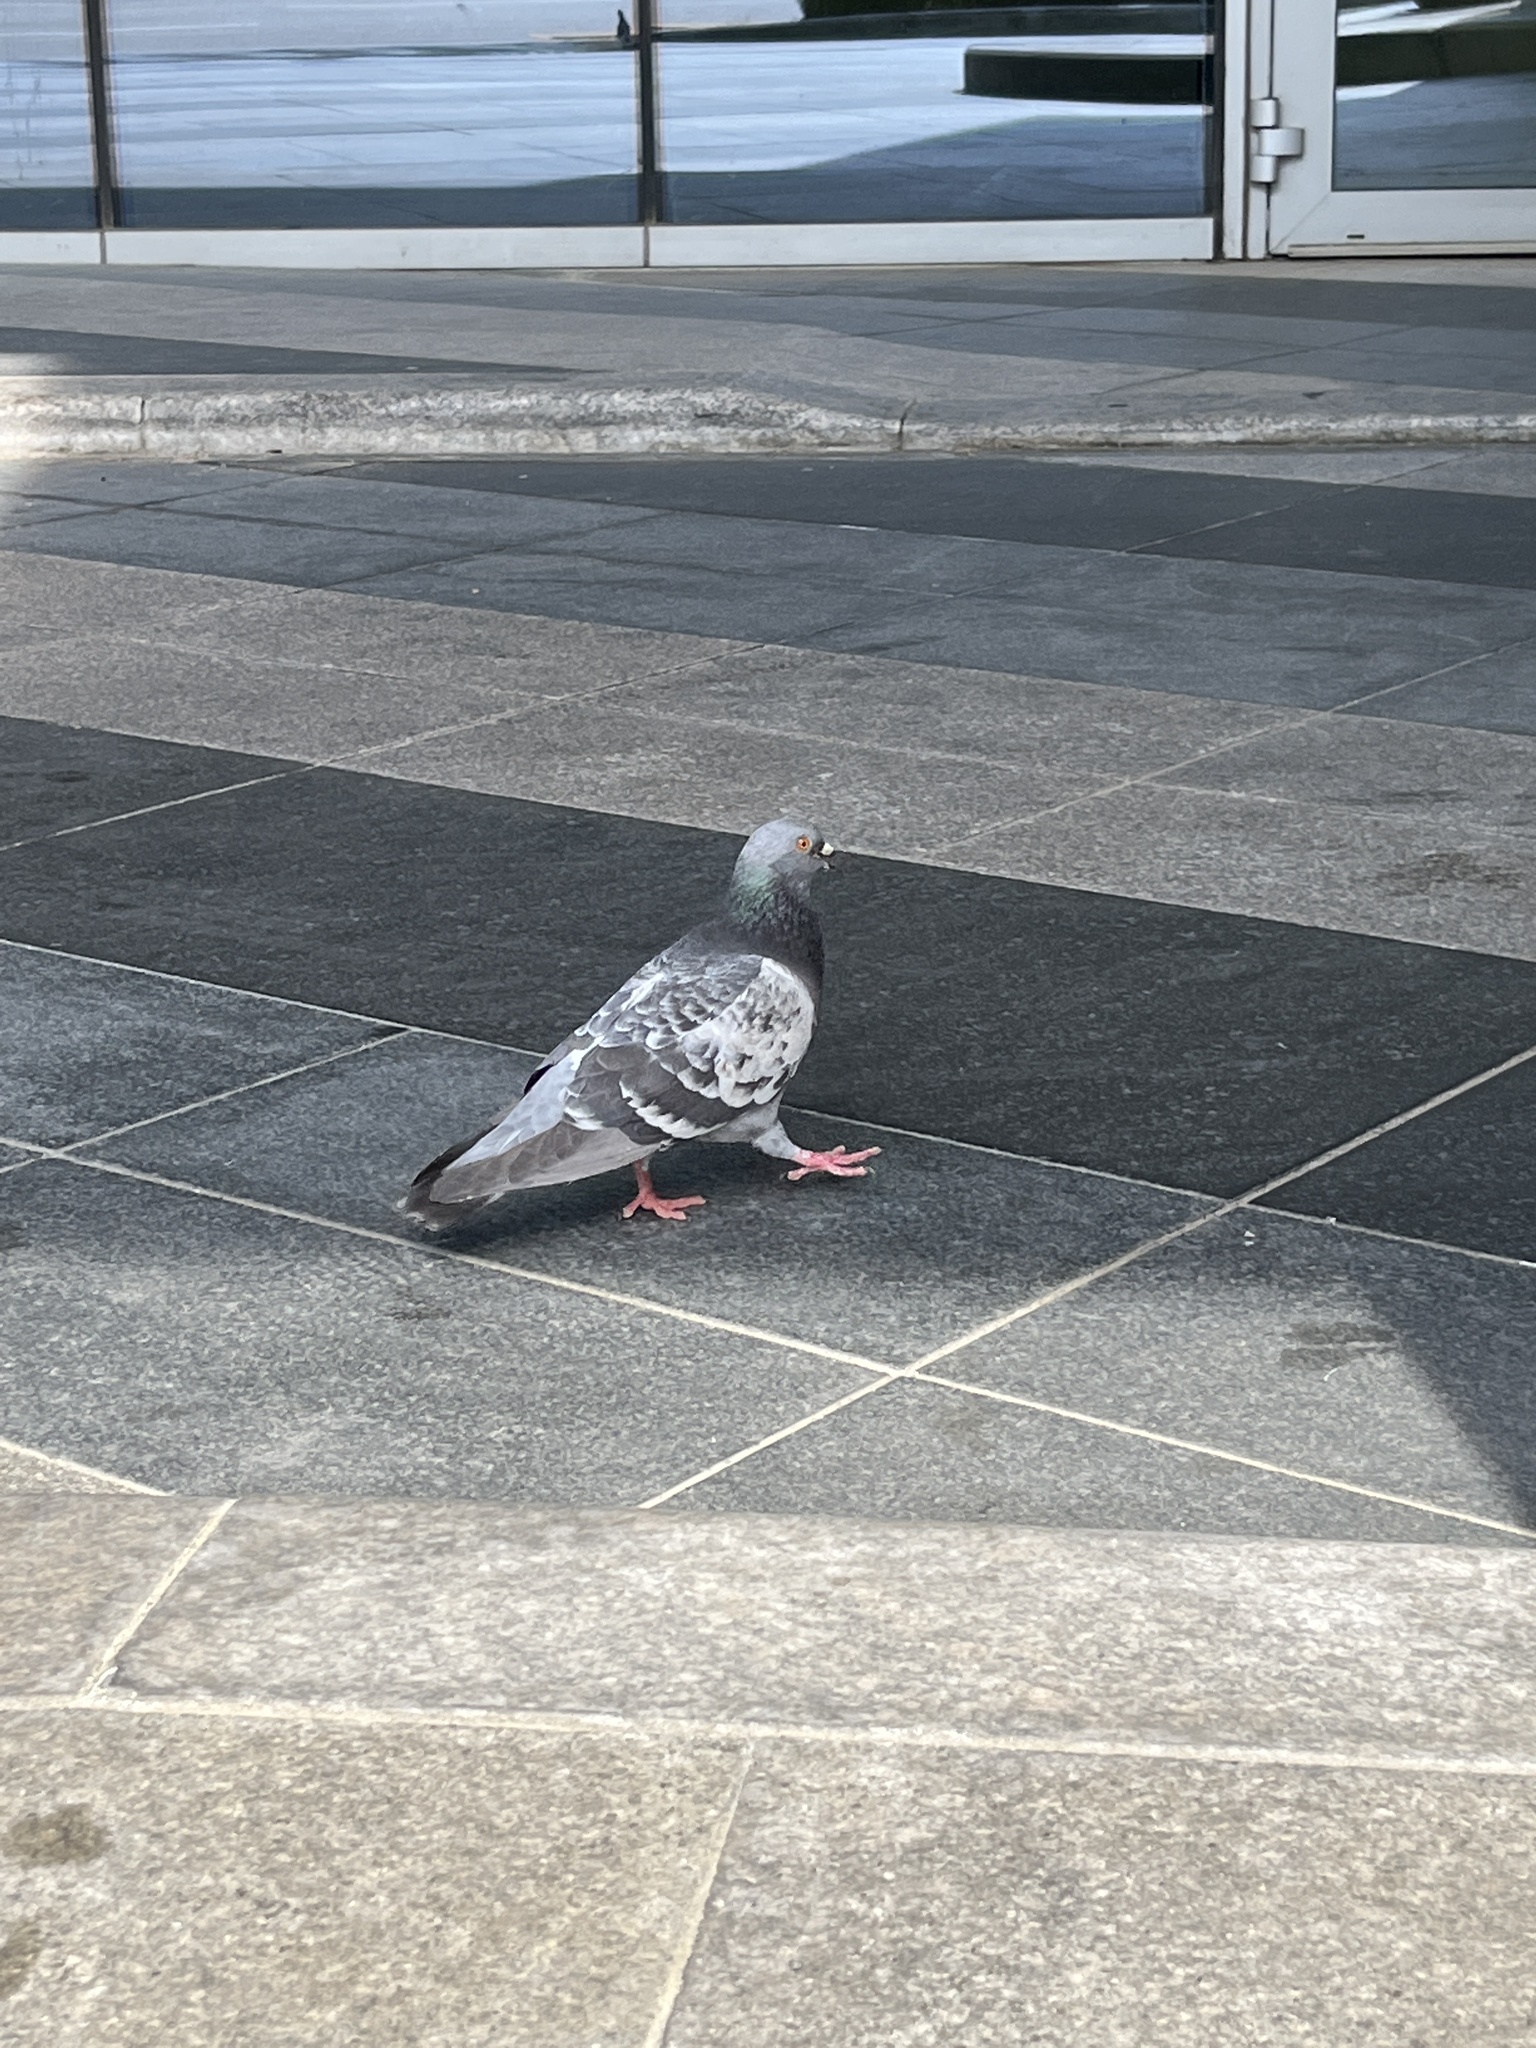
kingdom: Animalia
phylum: Chordata
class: Aves
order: Columbiformes
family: Columbidae
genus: Columba
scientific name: Columba livia
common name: Rock pigeon
